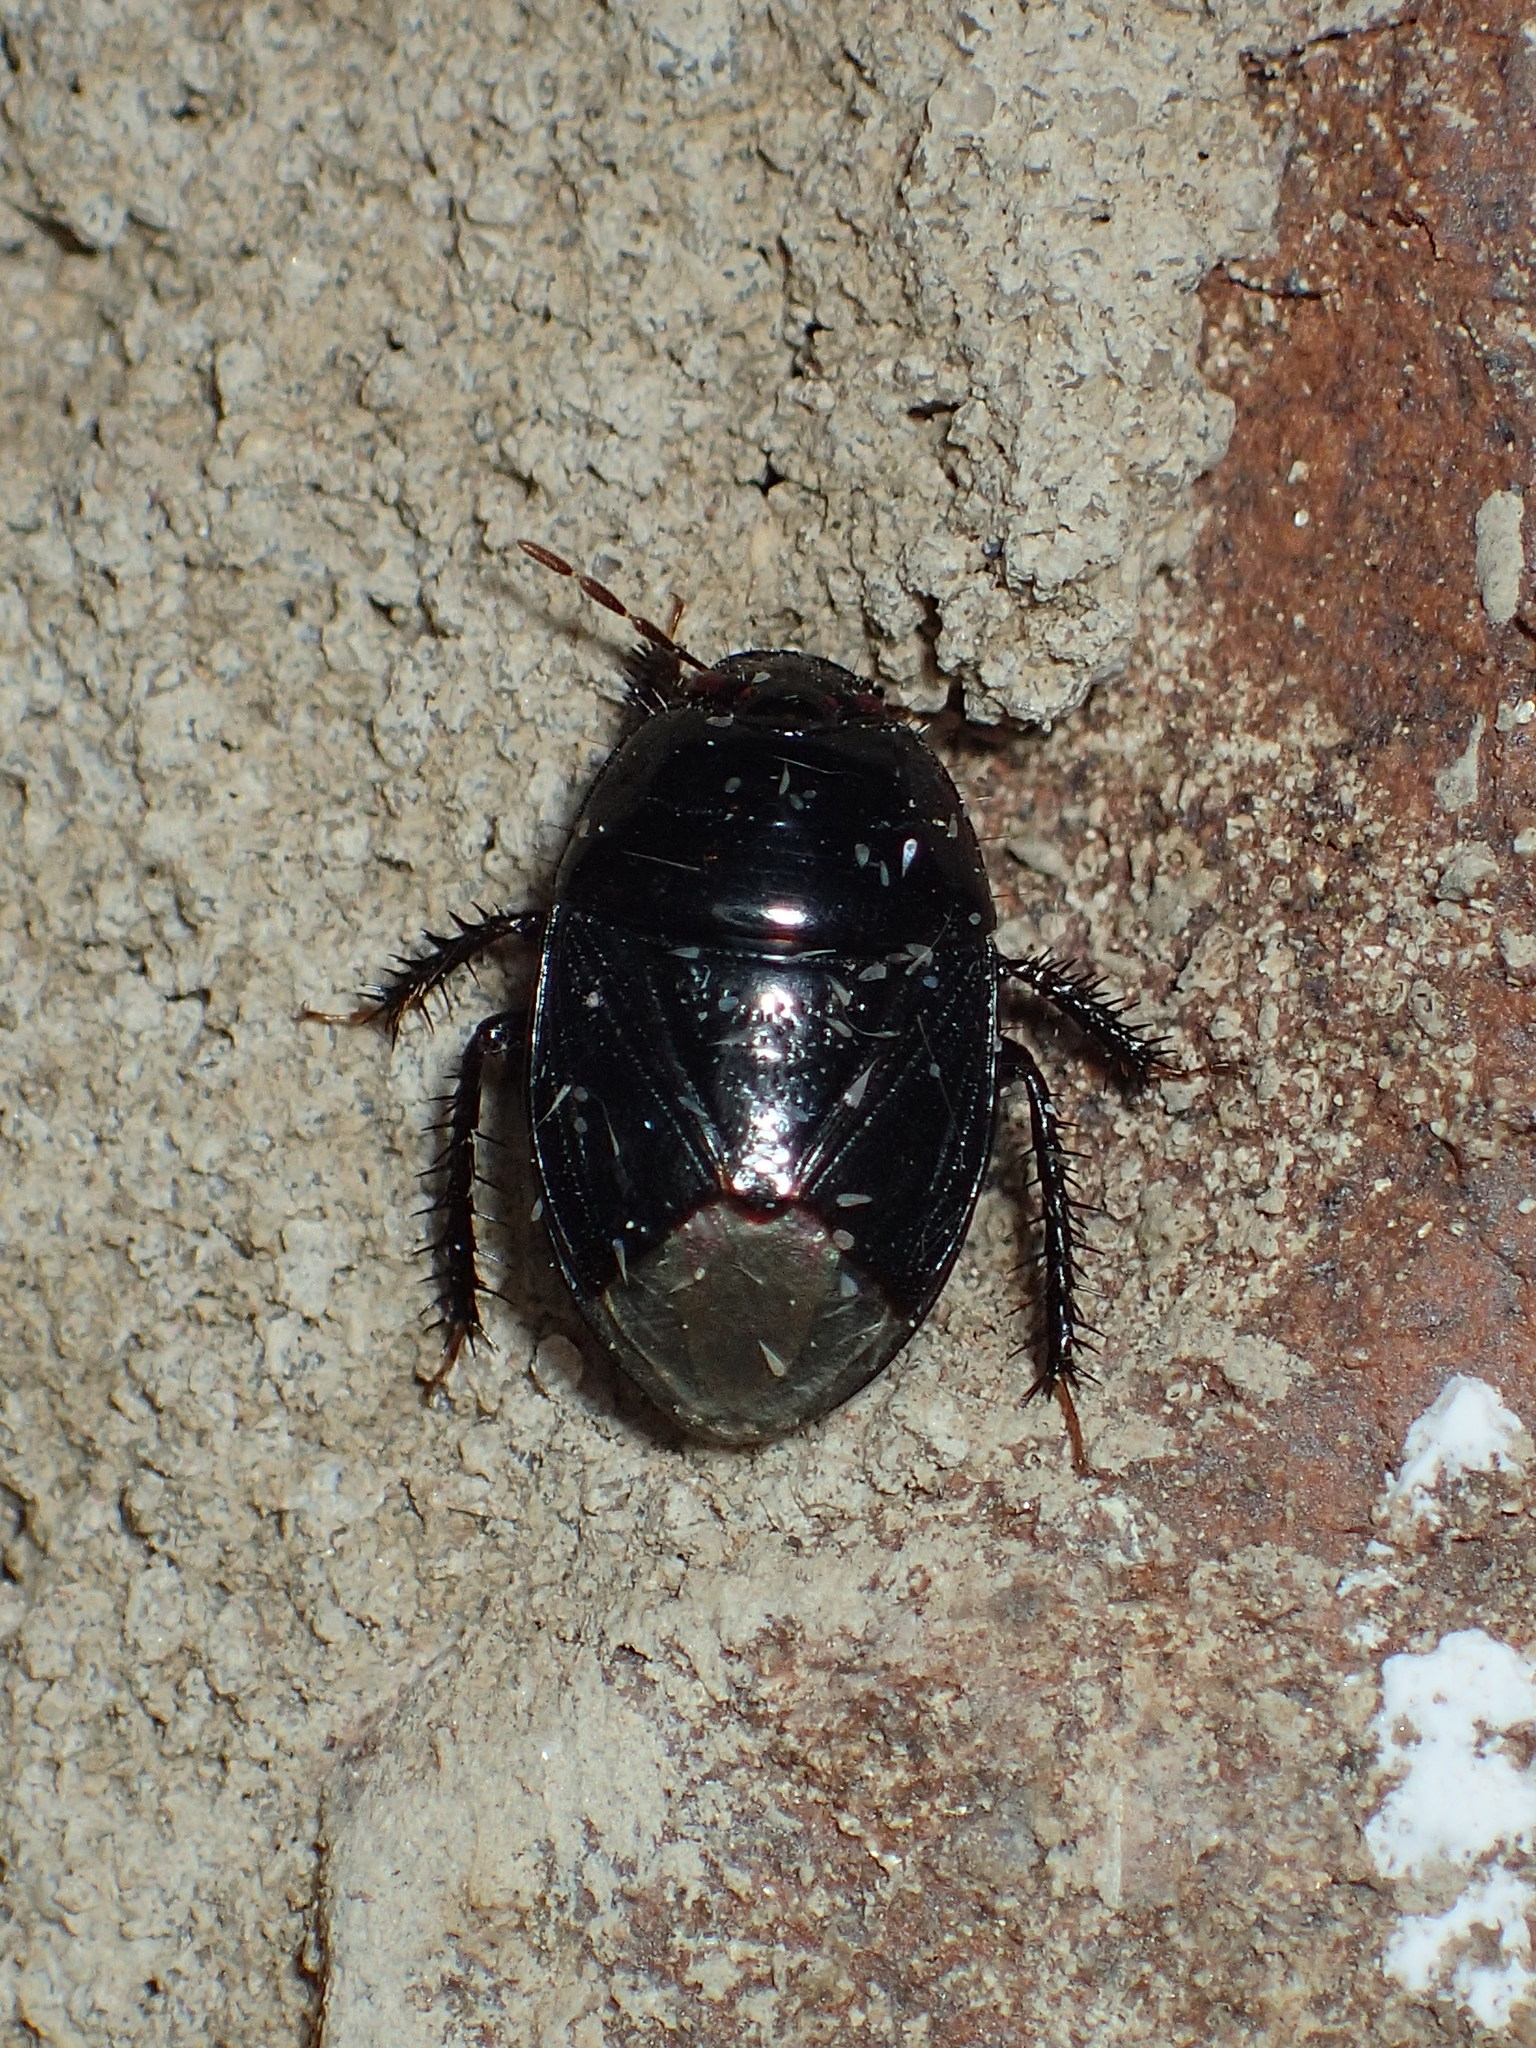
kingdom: Animalia
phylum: Arthropoda
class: Insecta
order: Hemiptera
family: Cydnidae
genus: Pangaeus
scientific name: Pangaeus bilineatus
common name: Burrower bug
